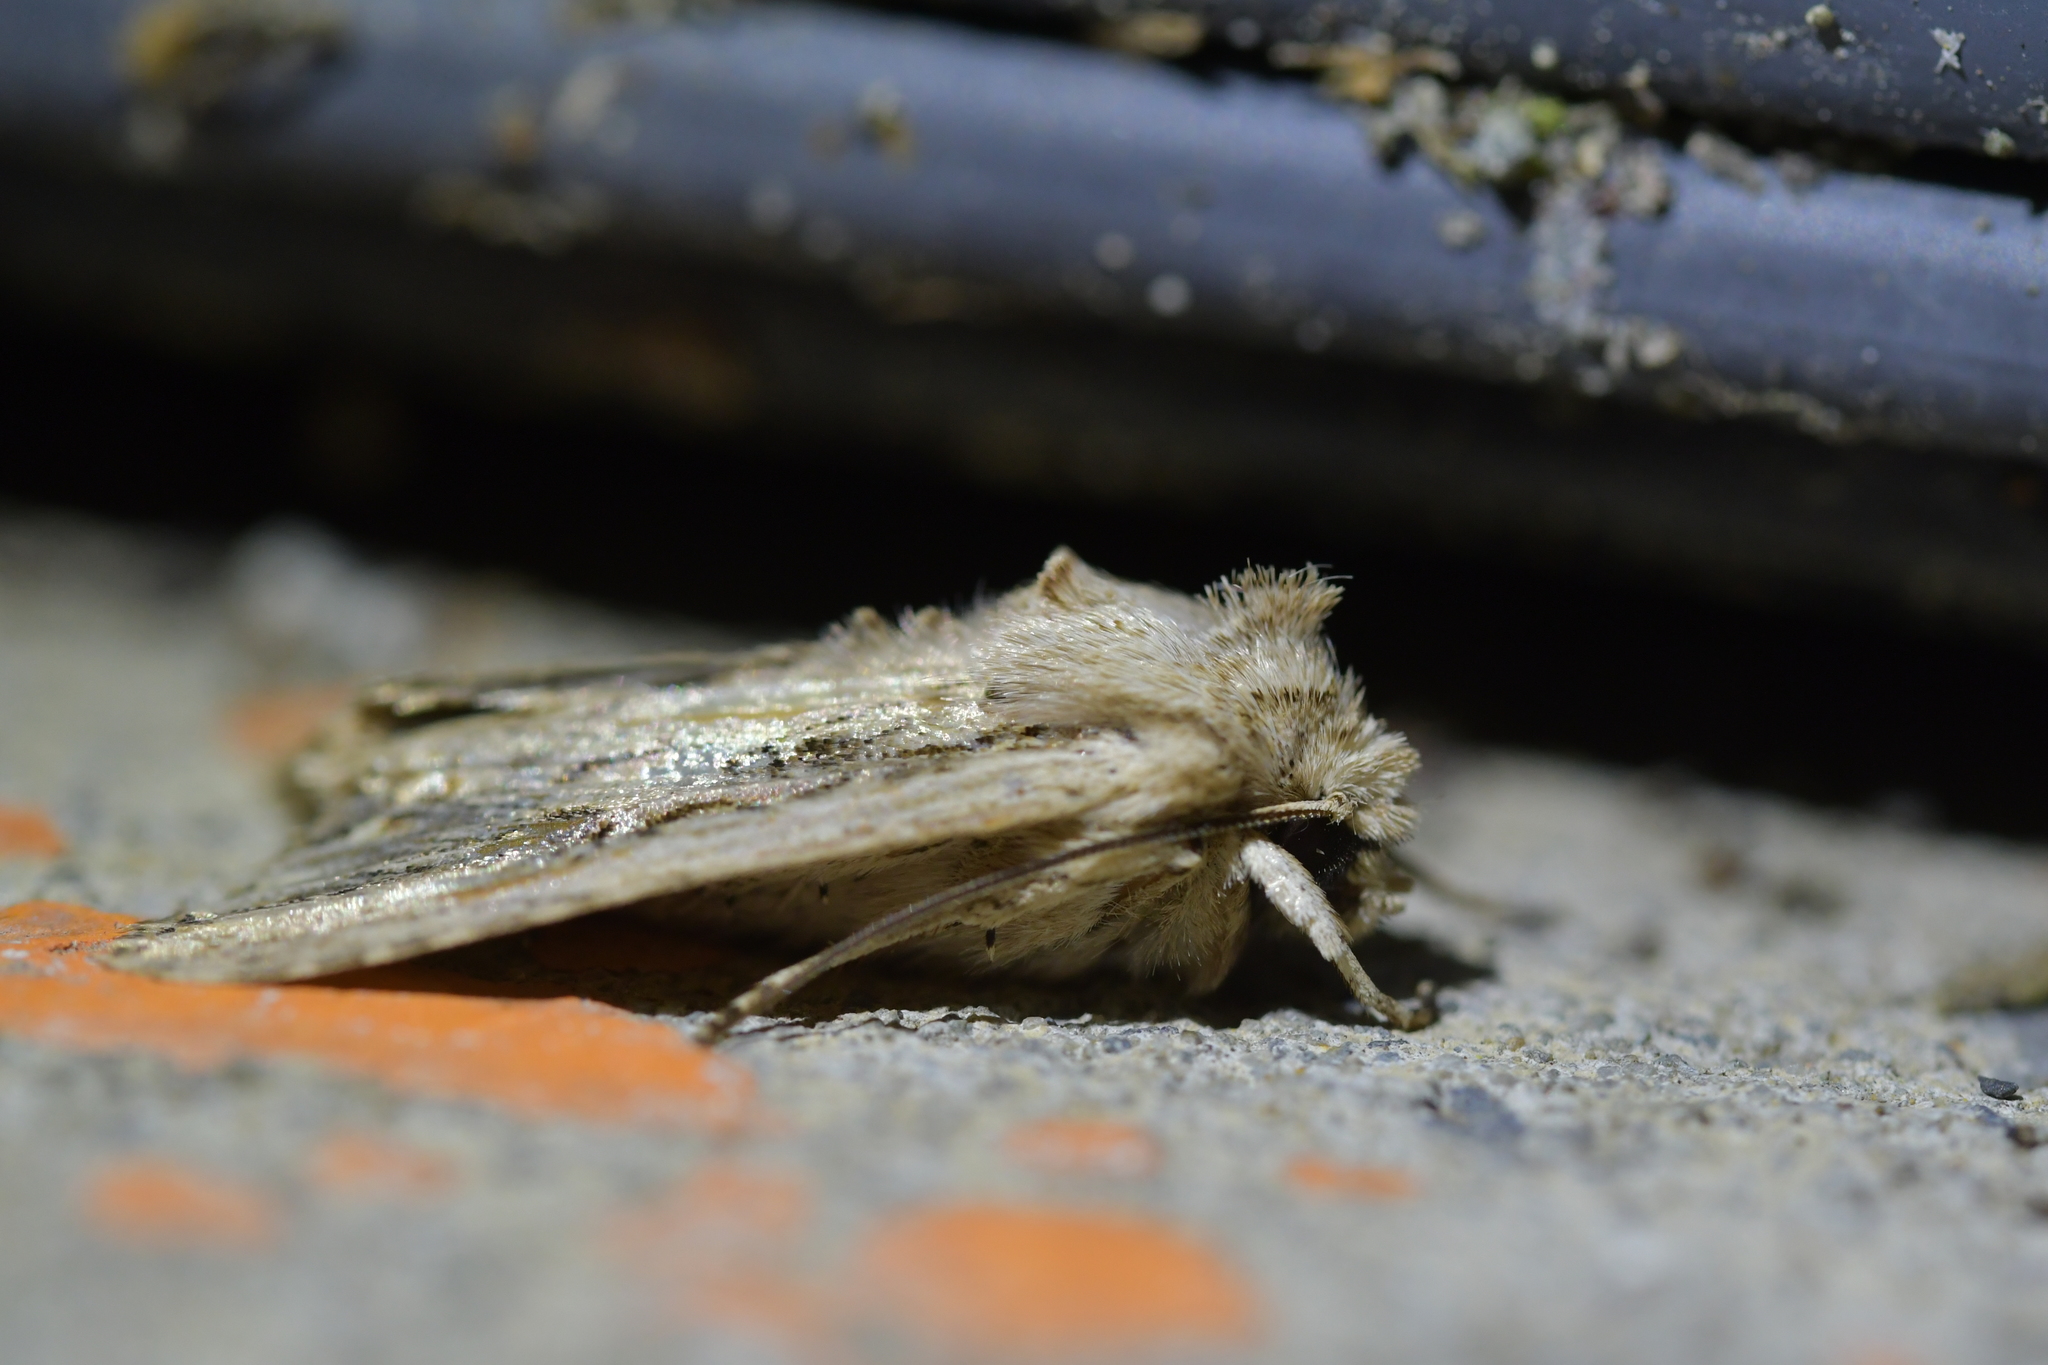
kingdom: Animalia
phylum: Arthropoda
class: Insecta
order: Lepidoptera
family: Noctuidae
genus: Ichneutica
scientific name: Ichneutica lignana
